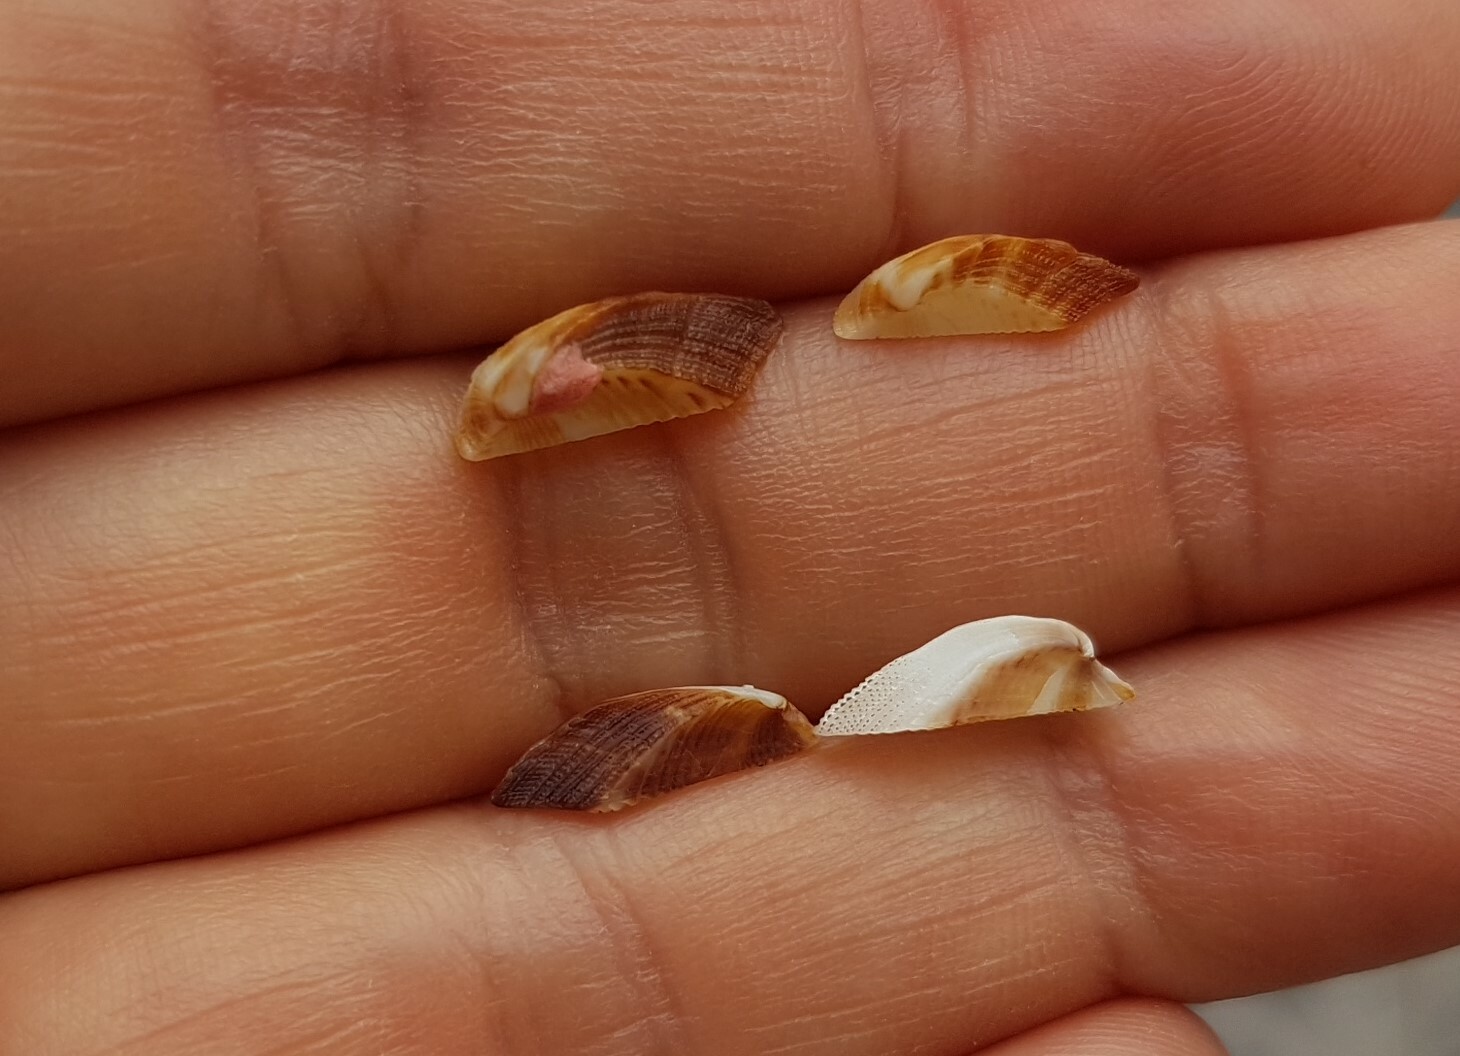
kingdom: Animalia
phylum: Mollusca
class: Bivalvia
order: Arcida
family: Arcidae
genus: Tetrarca
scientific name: Tetrarca tetragona
